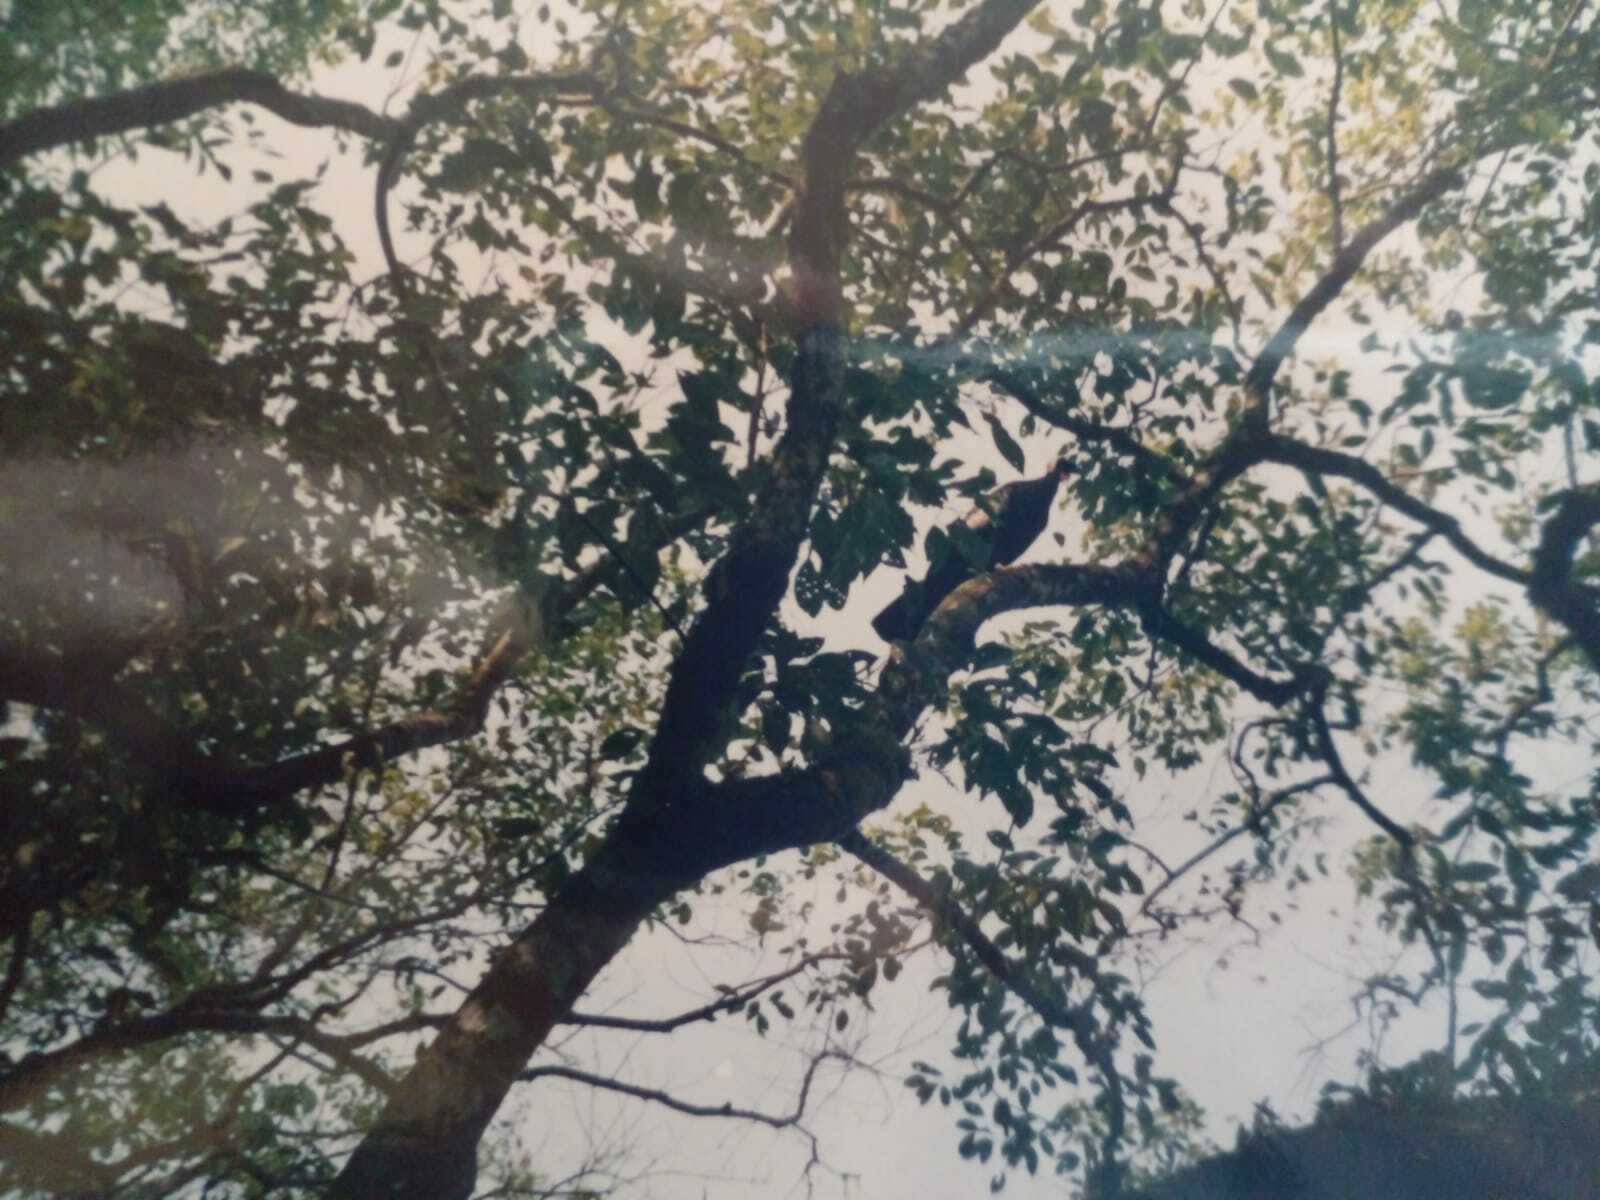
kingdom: Animalia
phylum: Chordata
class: Aves
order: Galliformes
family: Cracidae
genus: Pipile
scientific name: Pipile jacutinga
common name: Black-fronted piping-guan
